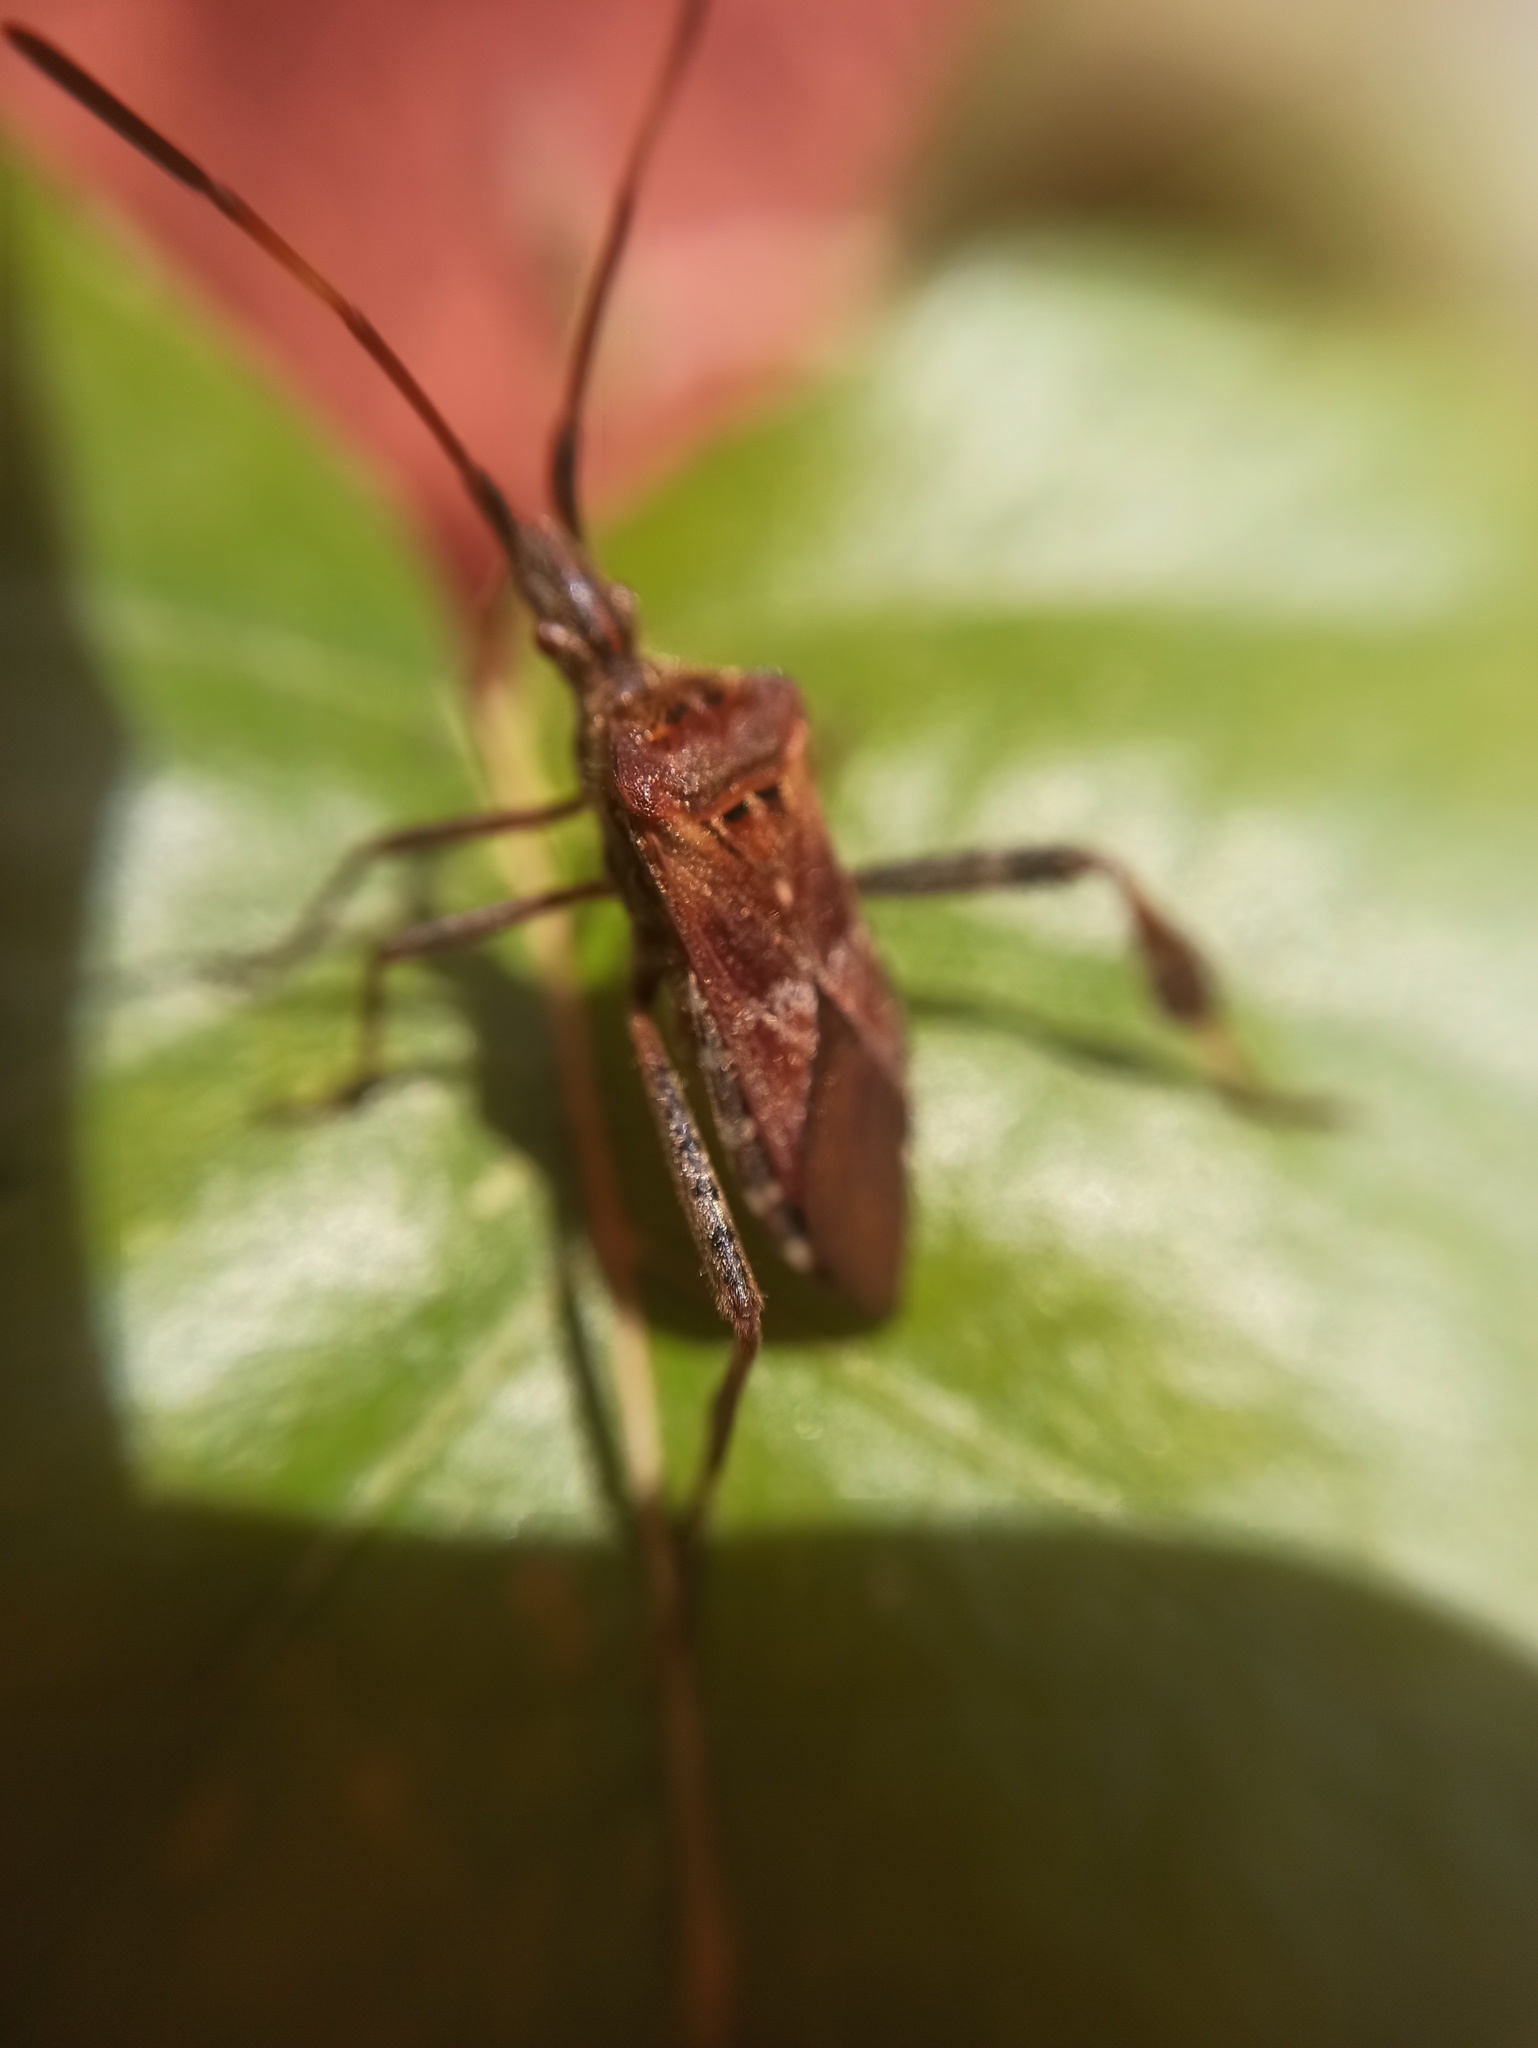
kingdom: Animalia
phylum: Arthropoda
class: Insecta
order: Hemiptera
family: Coreidae
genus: Leptoglossus
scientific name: Leptoglossus occidentalis
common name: Western conifer-seed bug
